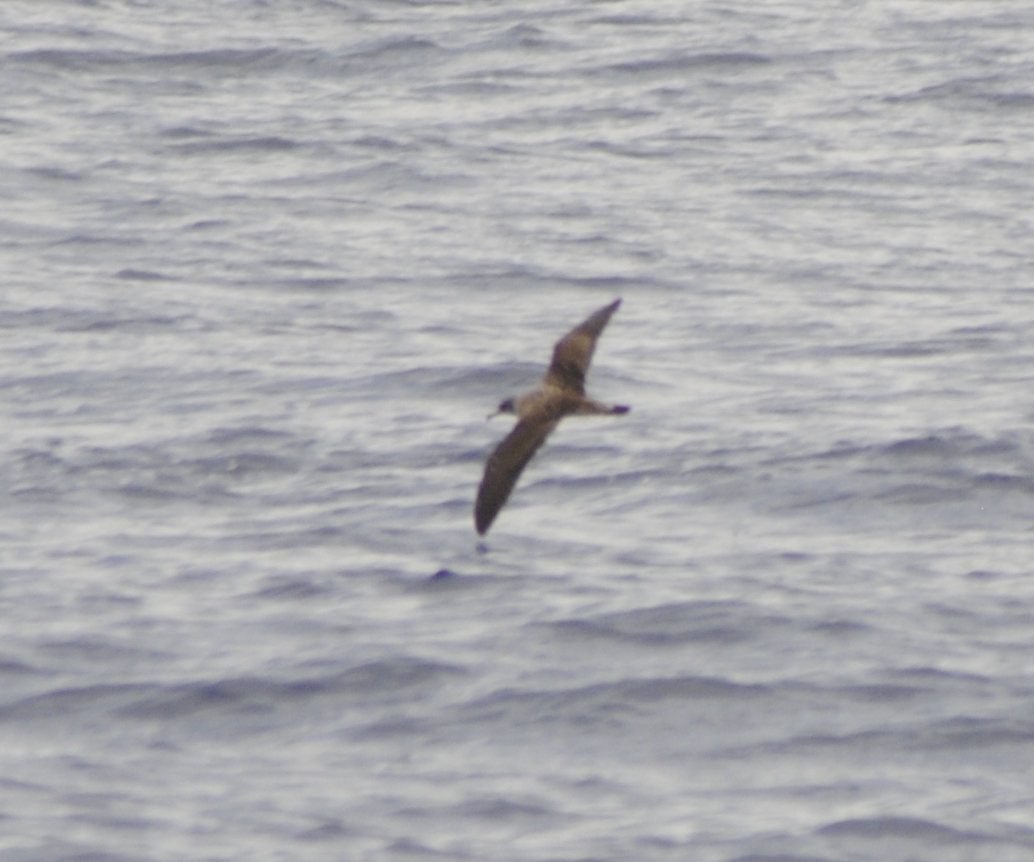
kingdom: Animalia
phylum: Chordata
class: Aves
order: Procellariiformes
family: Procellariidae
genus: Calonectris
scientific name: Calonectris diomedea
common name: Cory's shearwater
